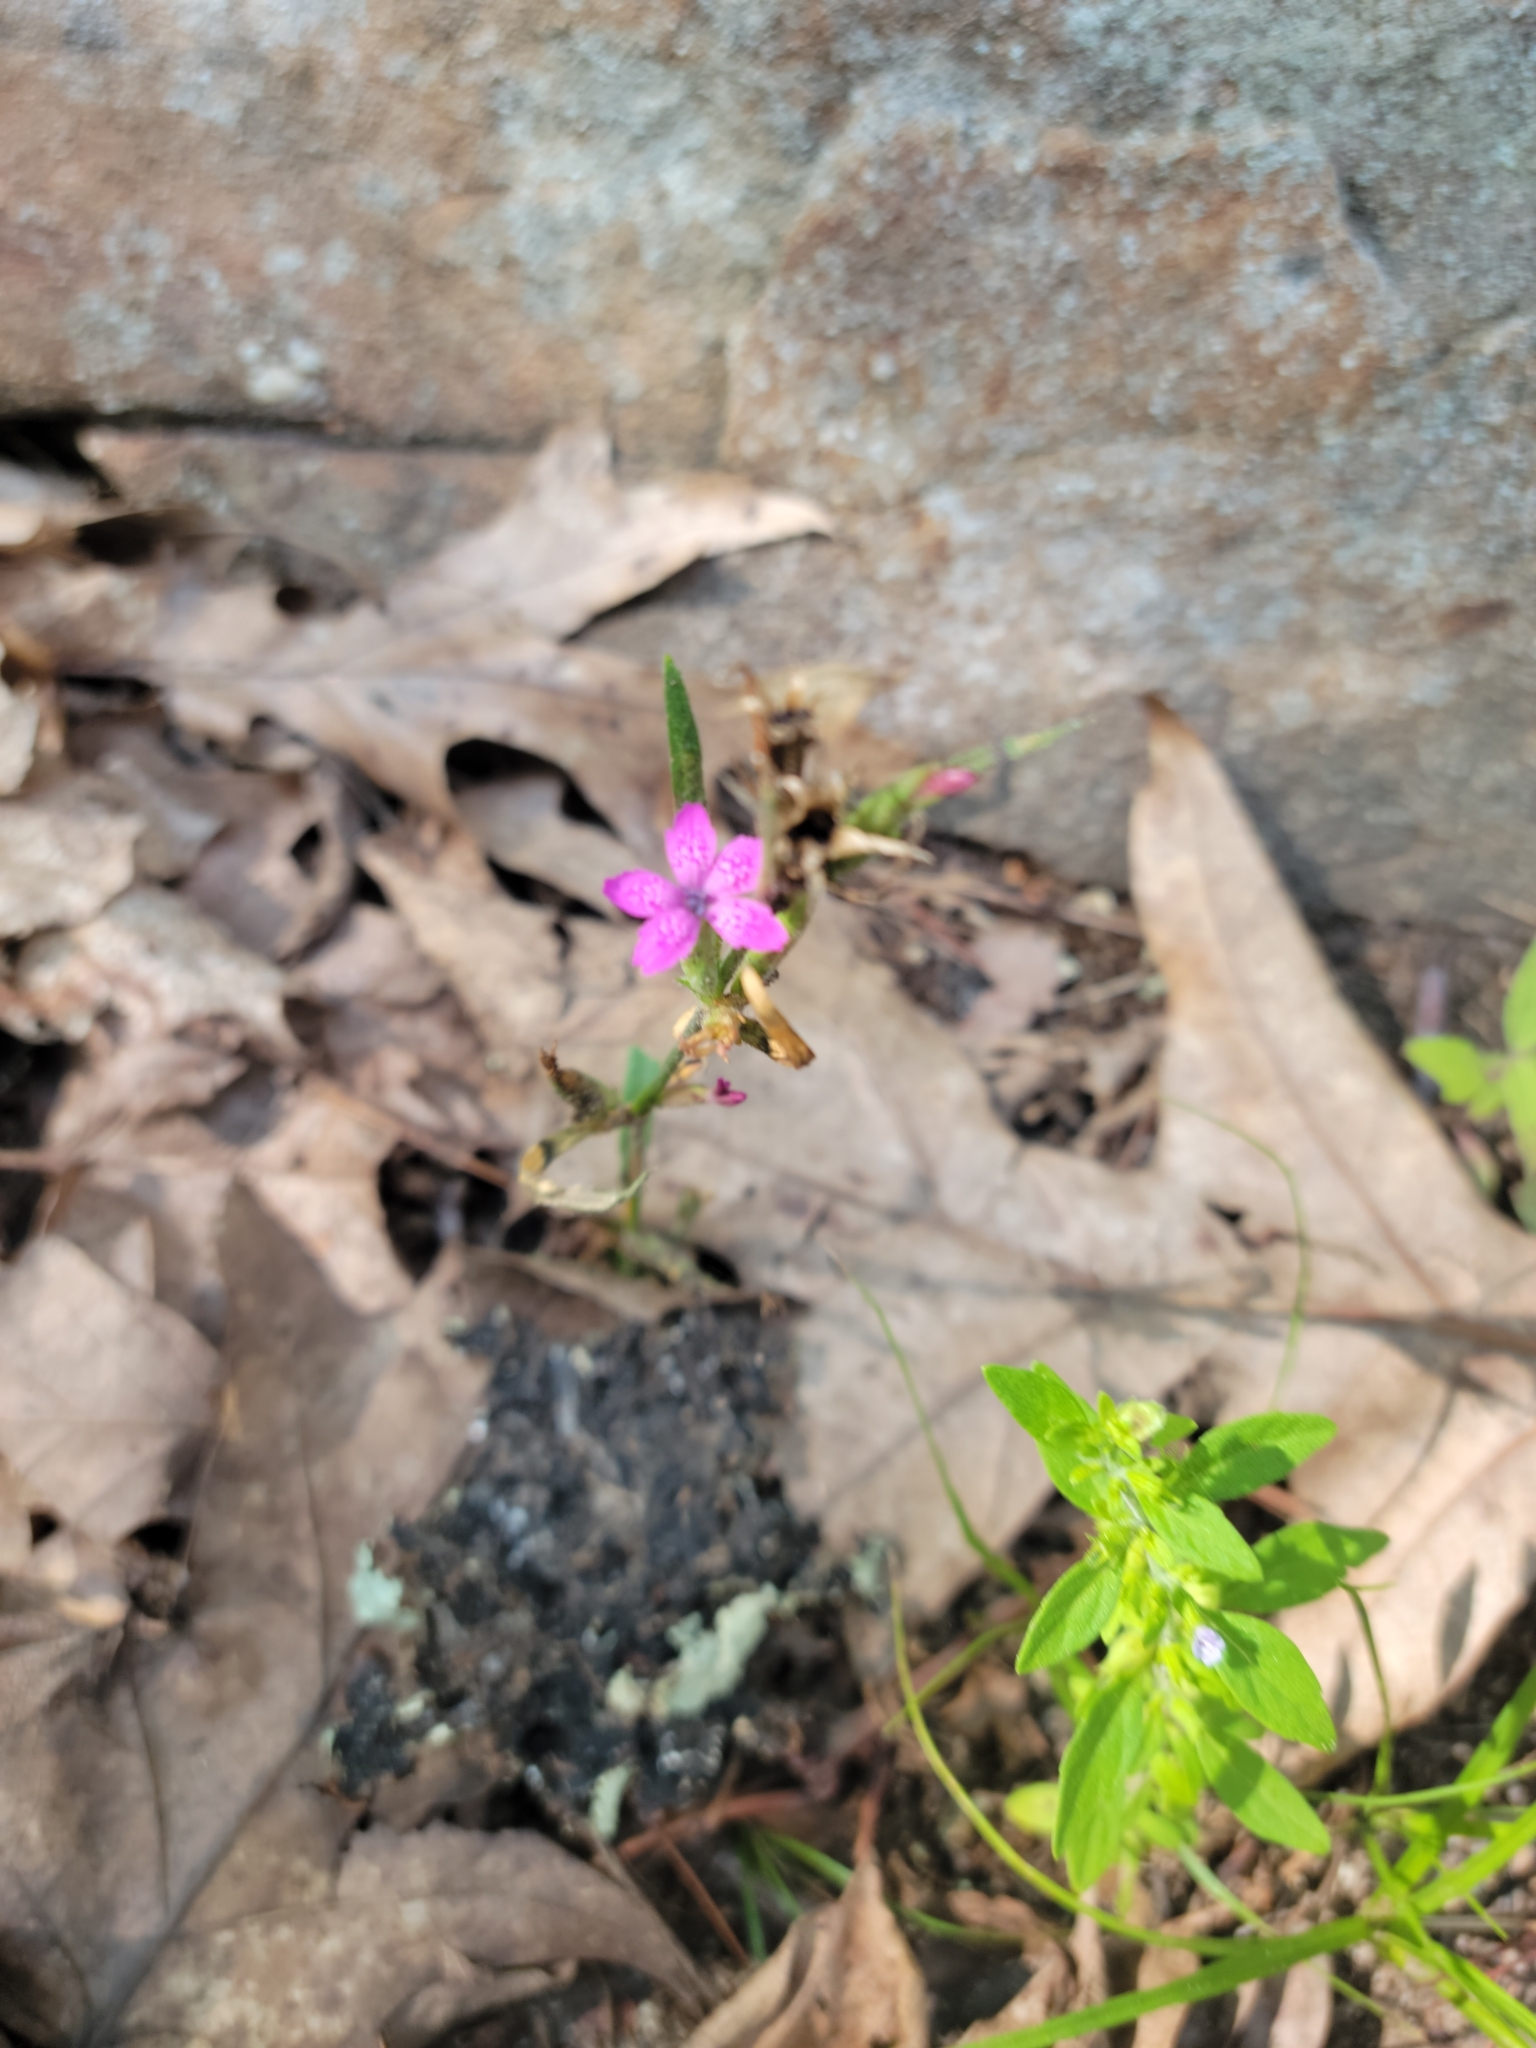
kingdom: Plantae
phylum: Tracheophyta
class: Magnoliopsida
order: Caryophyllales
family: Caryophyllaceae
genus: Dianthus
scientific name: Dianthus armeria
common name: Deptford pink
